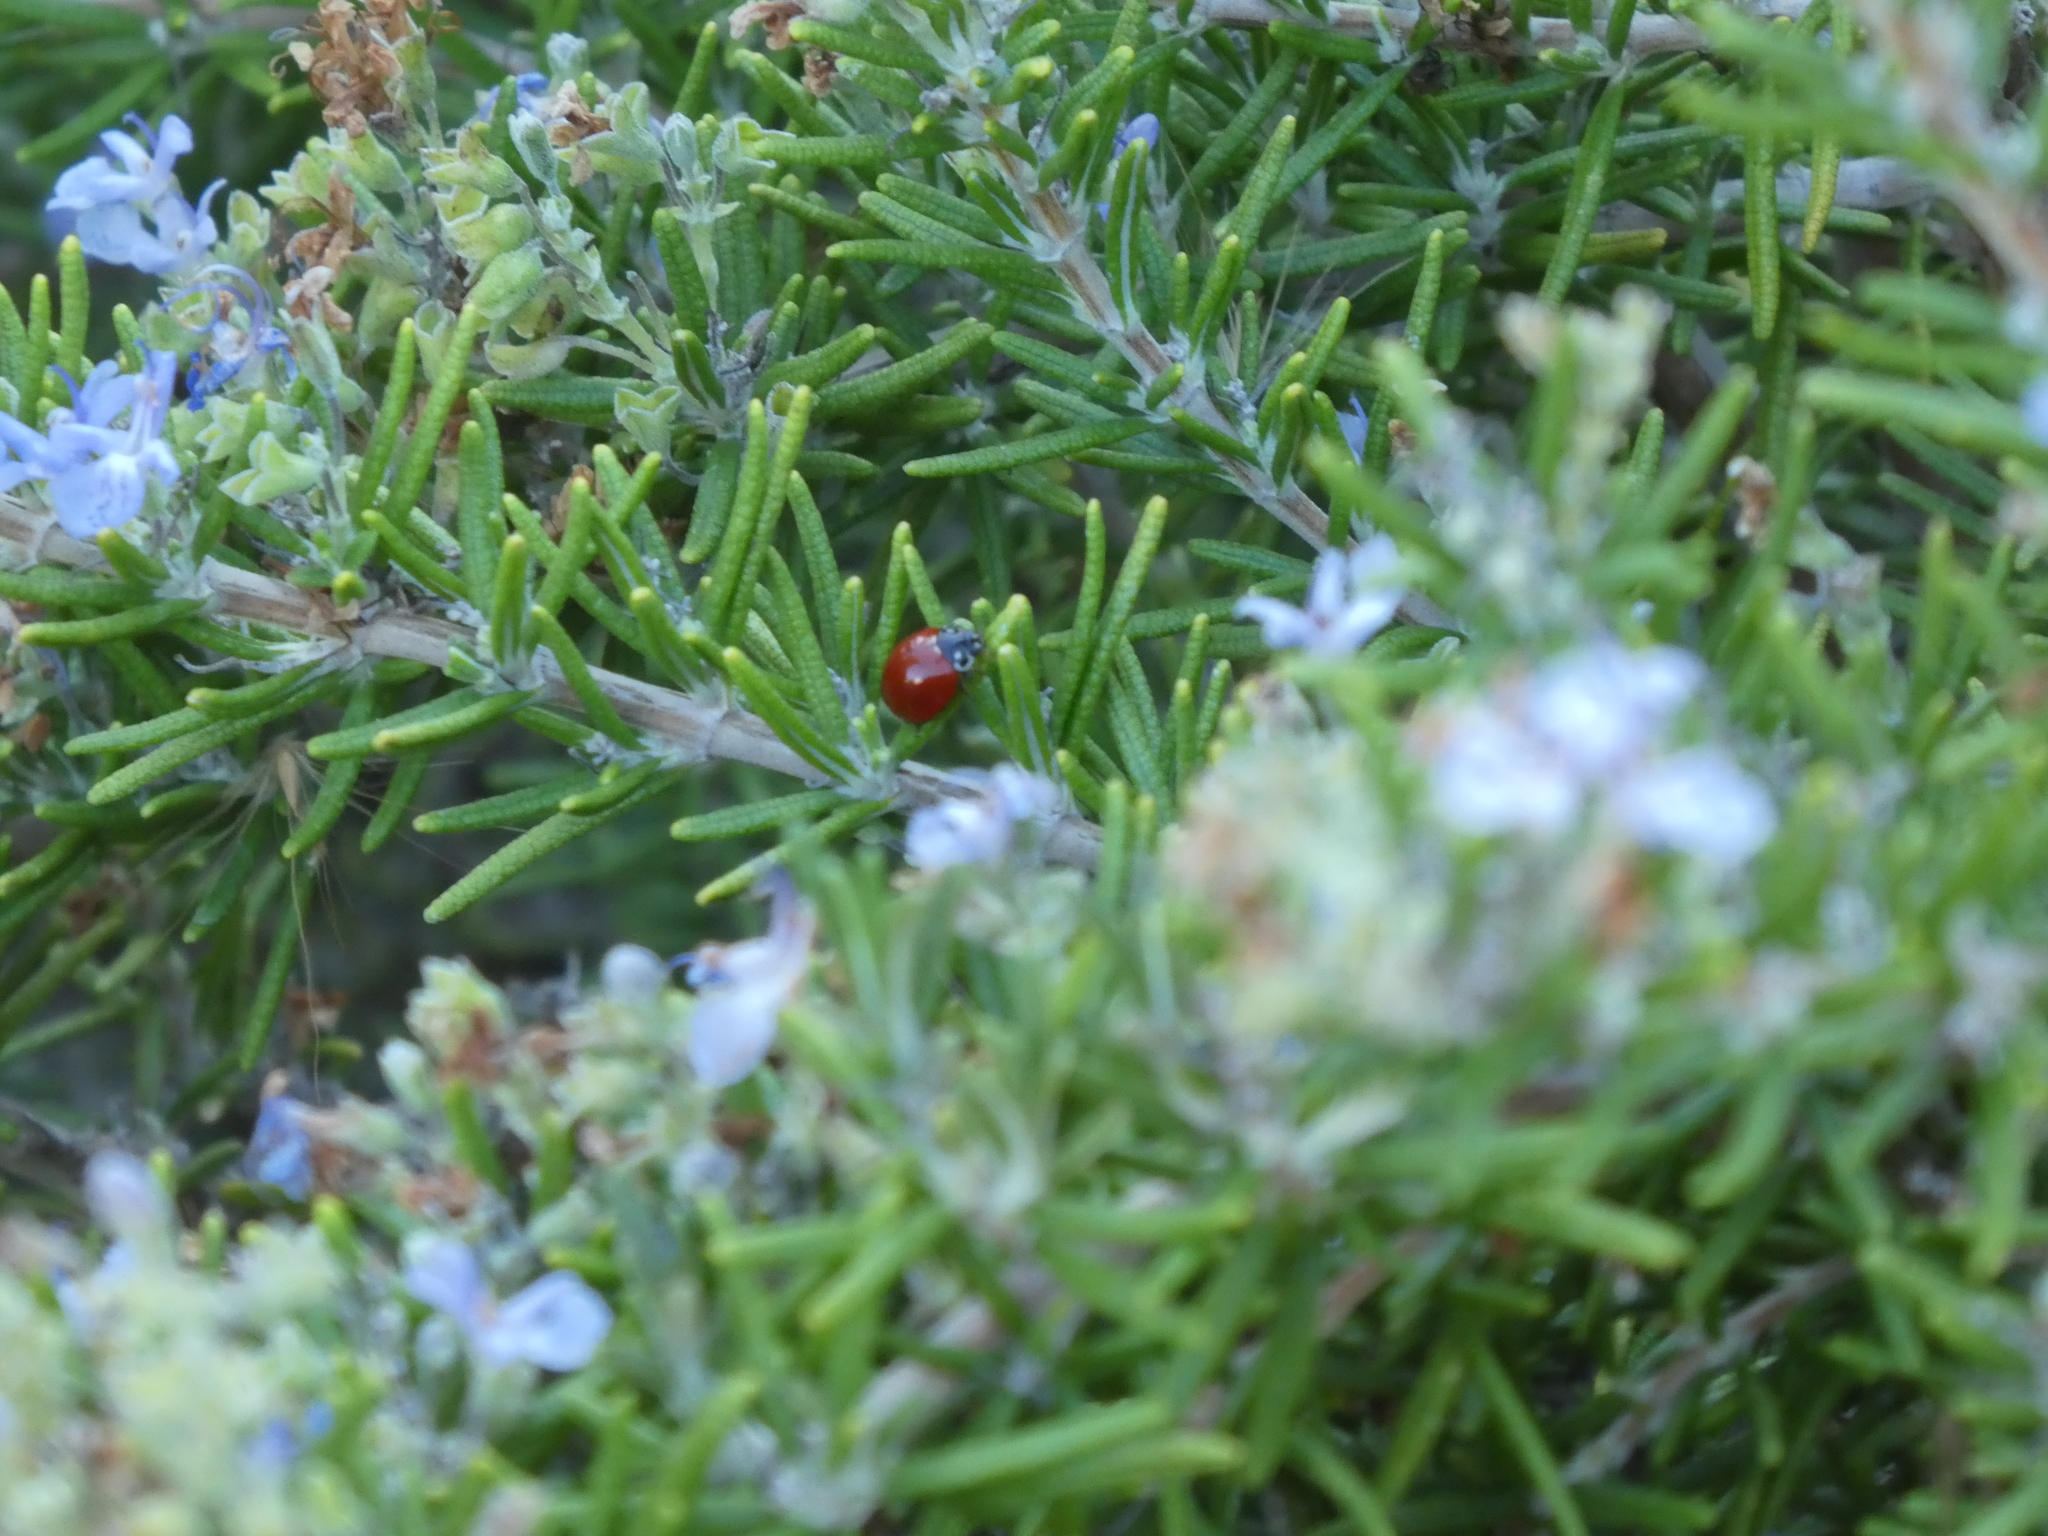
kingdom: Animalia
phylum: Arthropoda
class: Insecta
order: Coleoptera
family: Coccinellidae
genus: Cycloneda
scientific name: Cycloneda sanguinea
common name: Ladybird beetle
